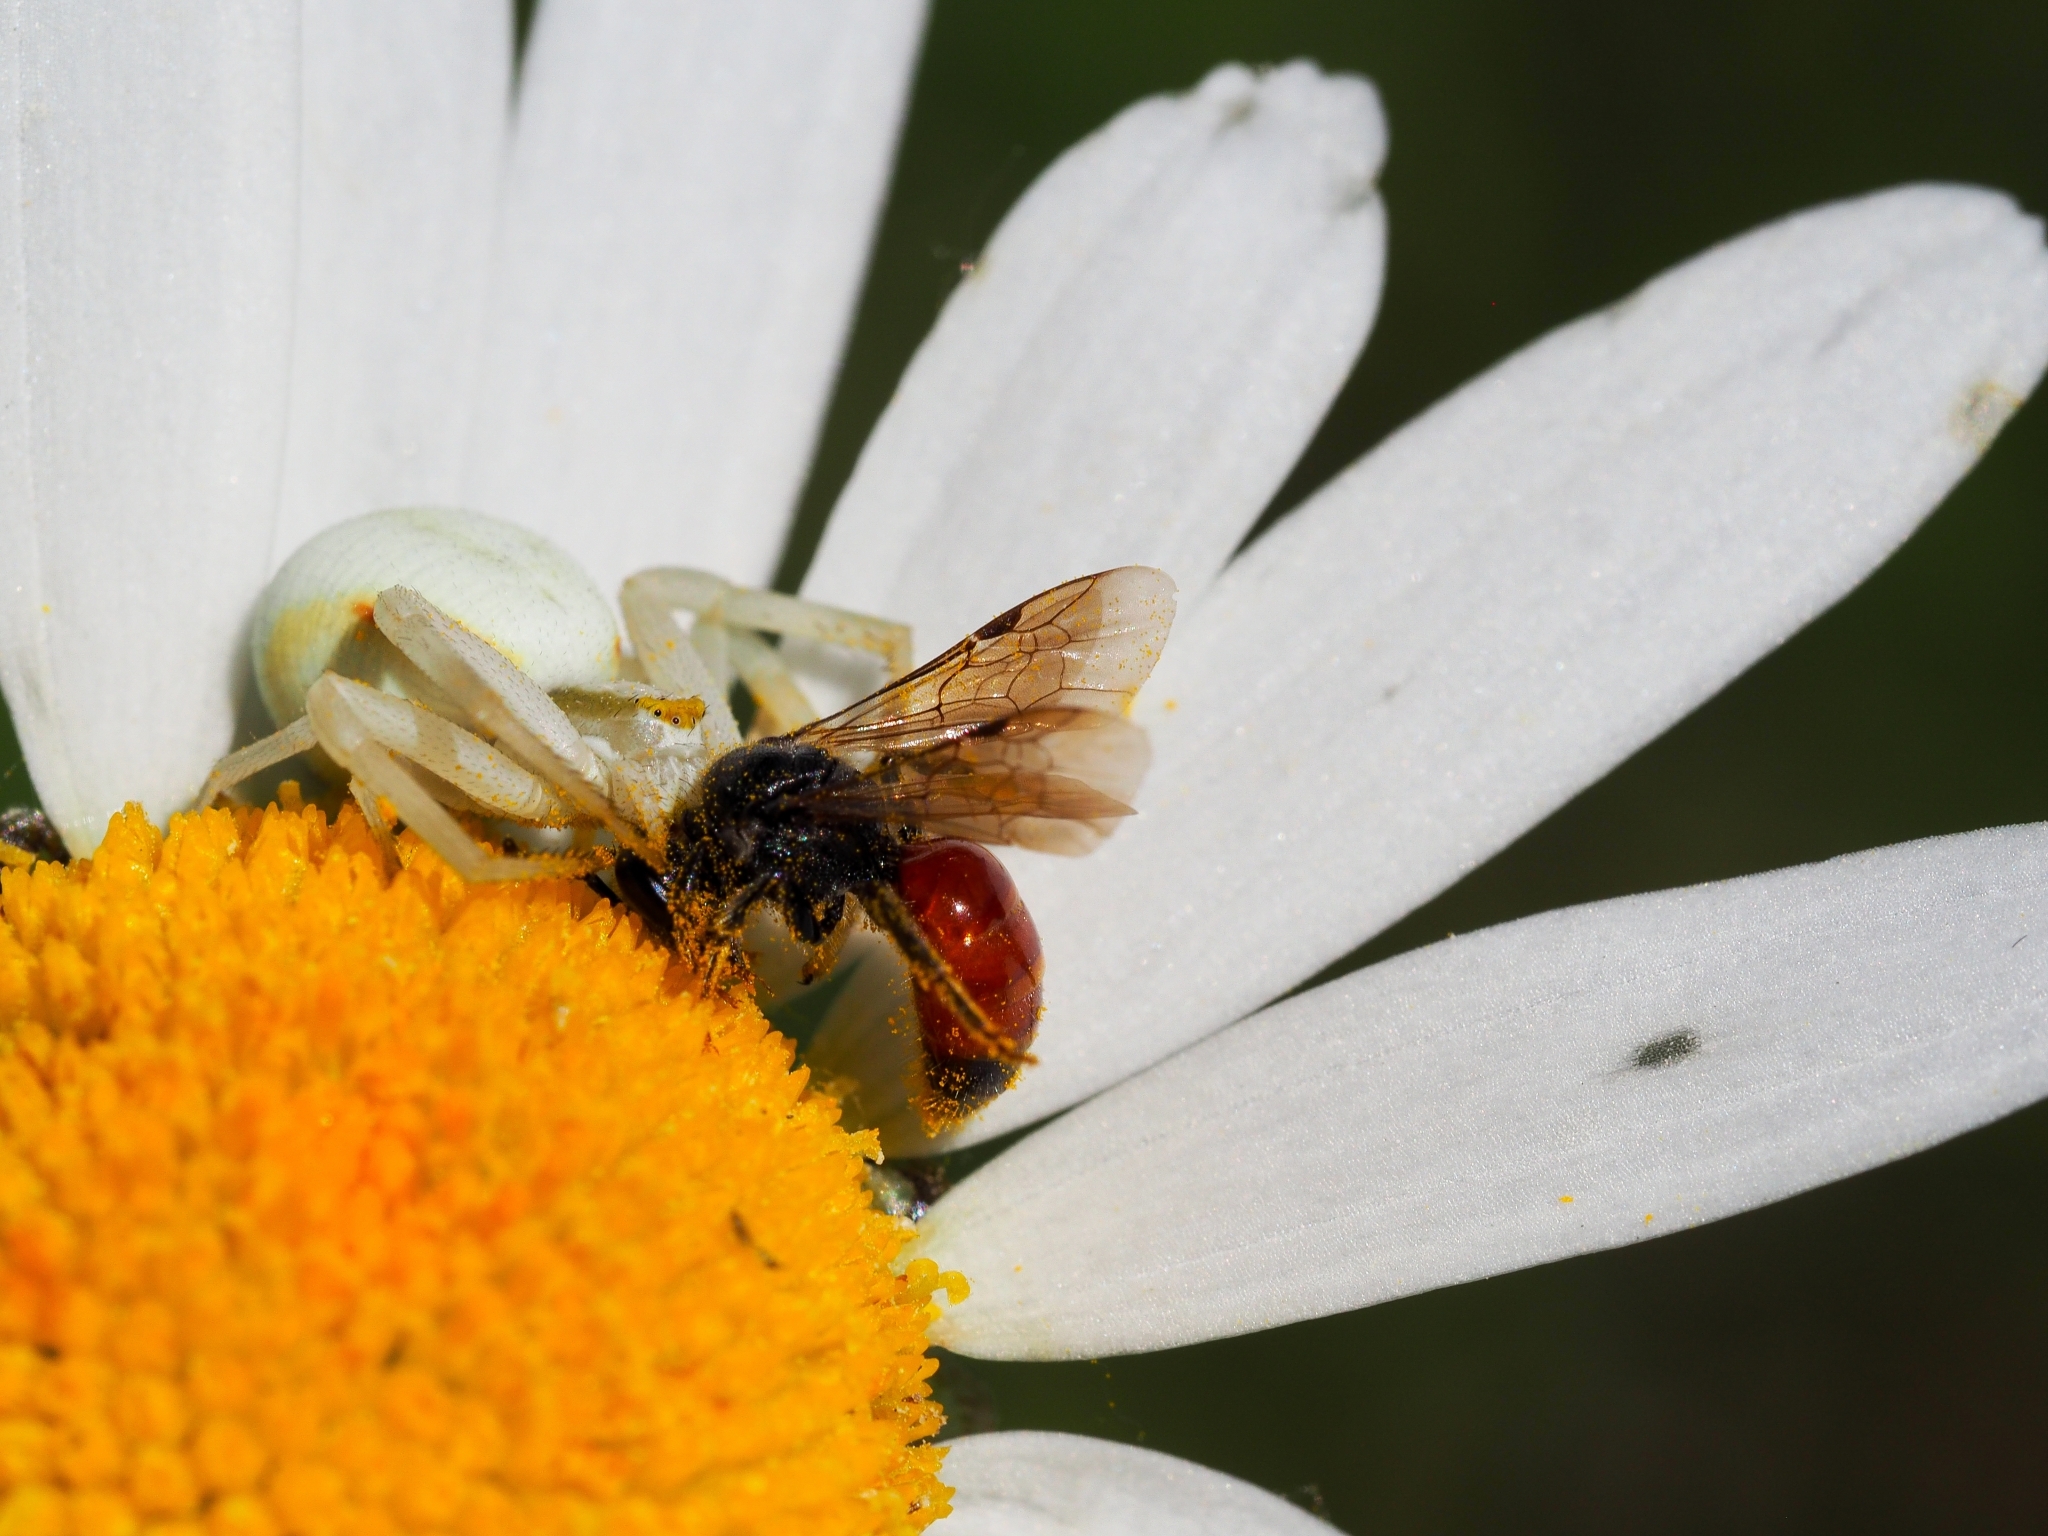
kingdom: Animalia
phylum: Arthropoda
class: Arachnida
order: Araneae
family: Thomisidae
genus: Misumena
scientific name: Misumena vatia
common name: Goldenrod crab spider
